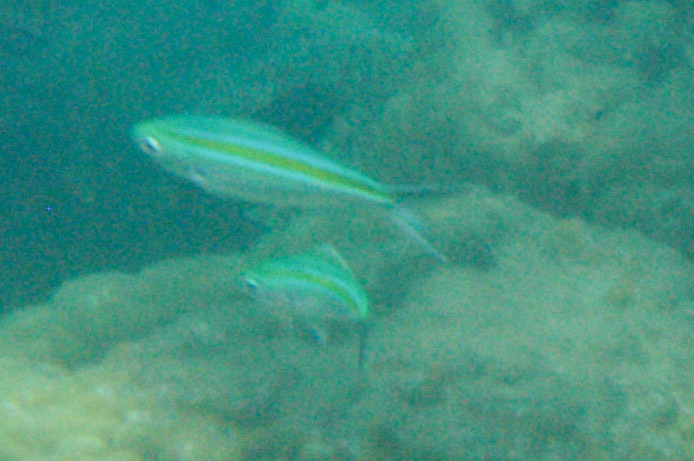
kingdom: Animalia
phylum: Chordata
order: Perciformes
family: Caesionidae
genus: Caesio
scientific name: Caesio caerulaurea
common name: Blue and gold fusilier
